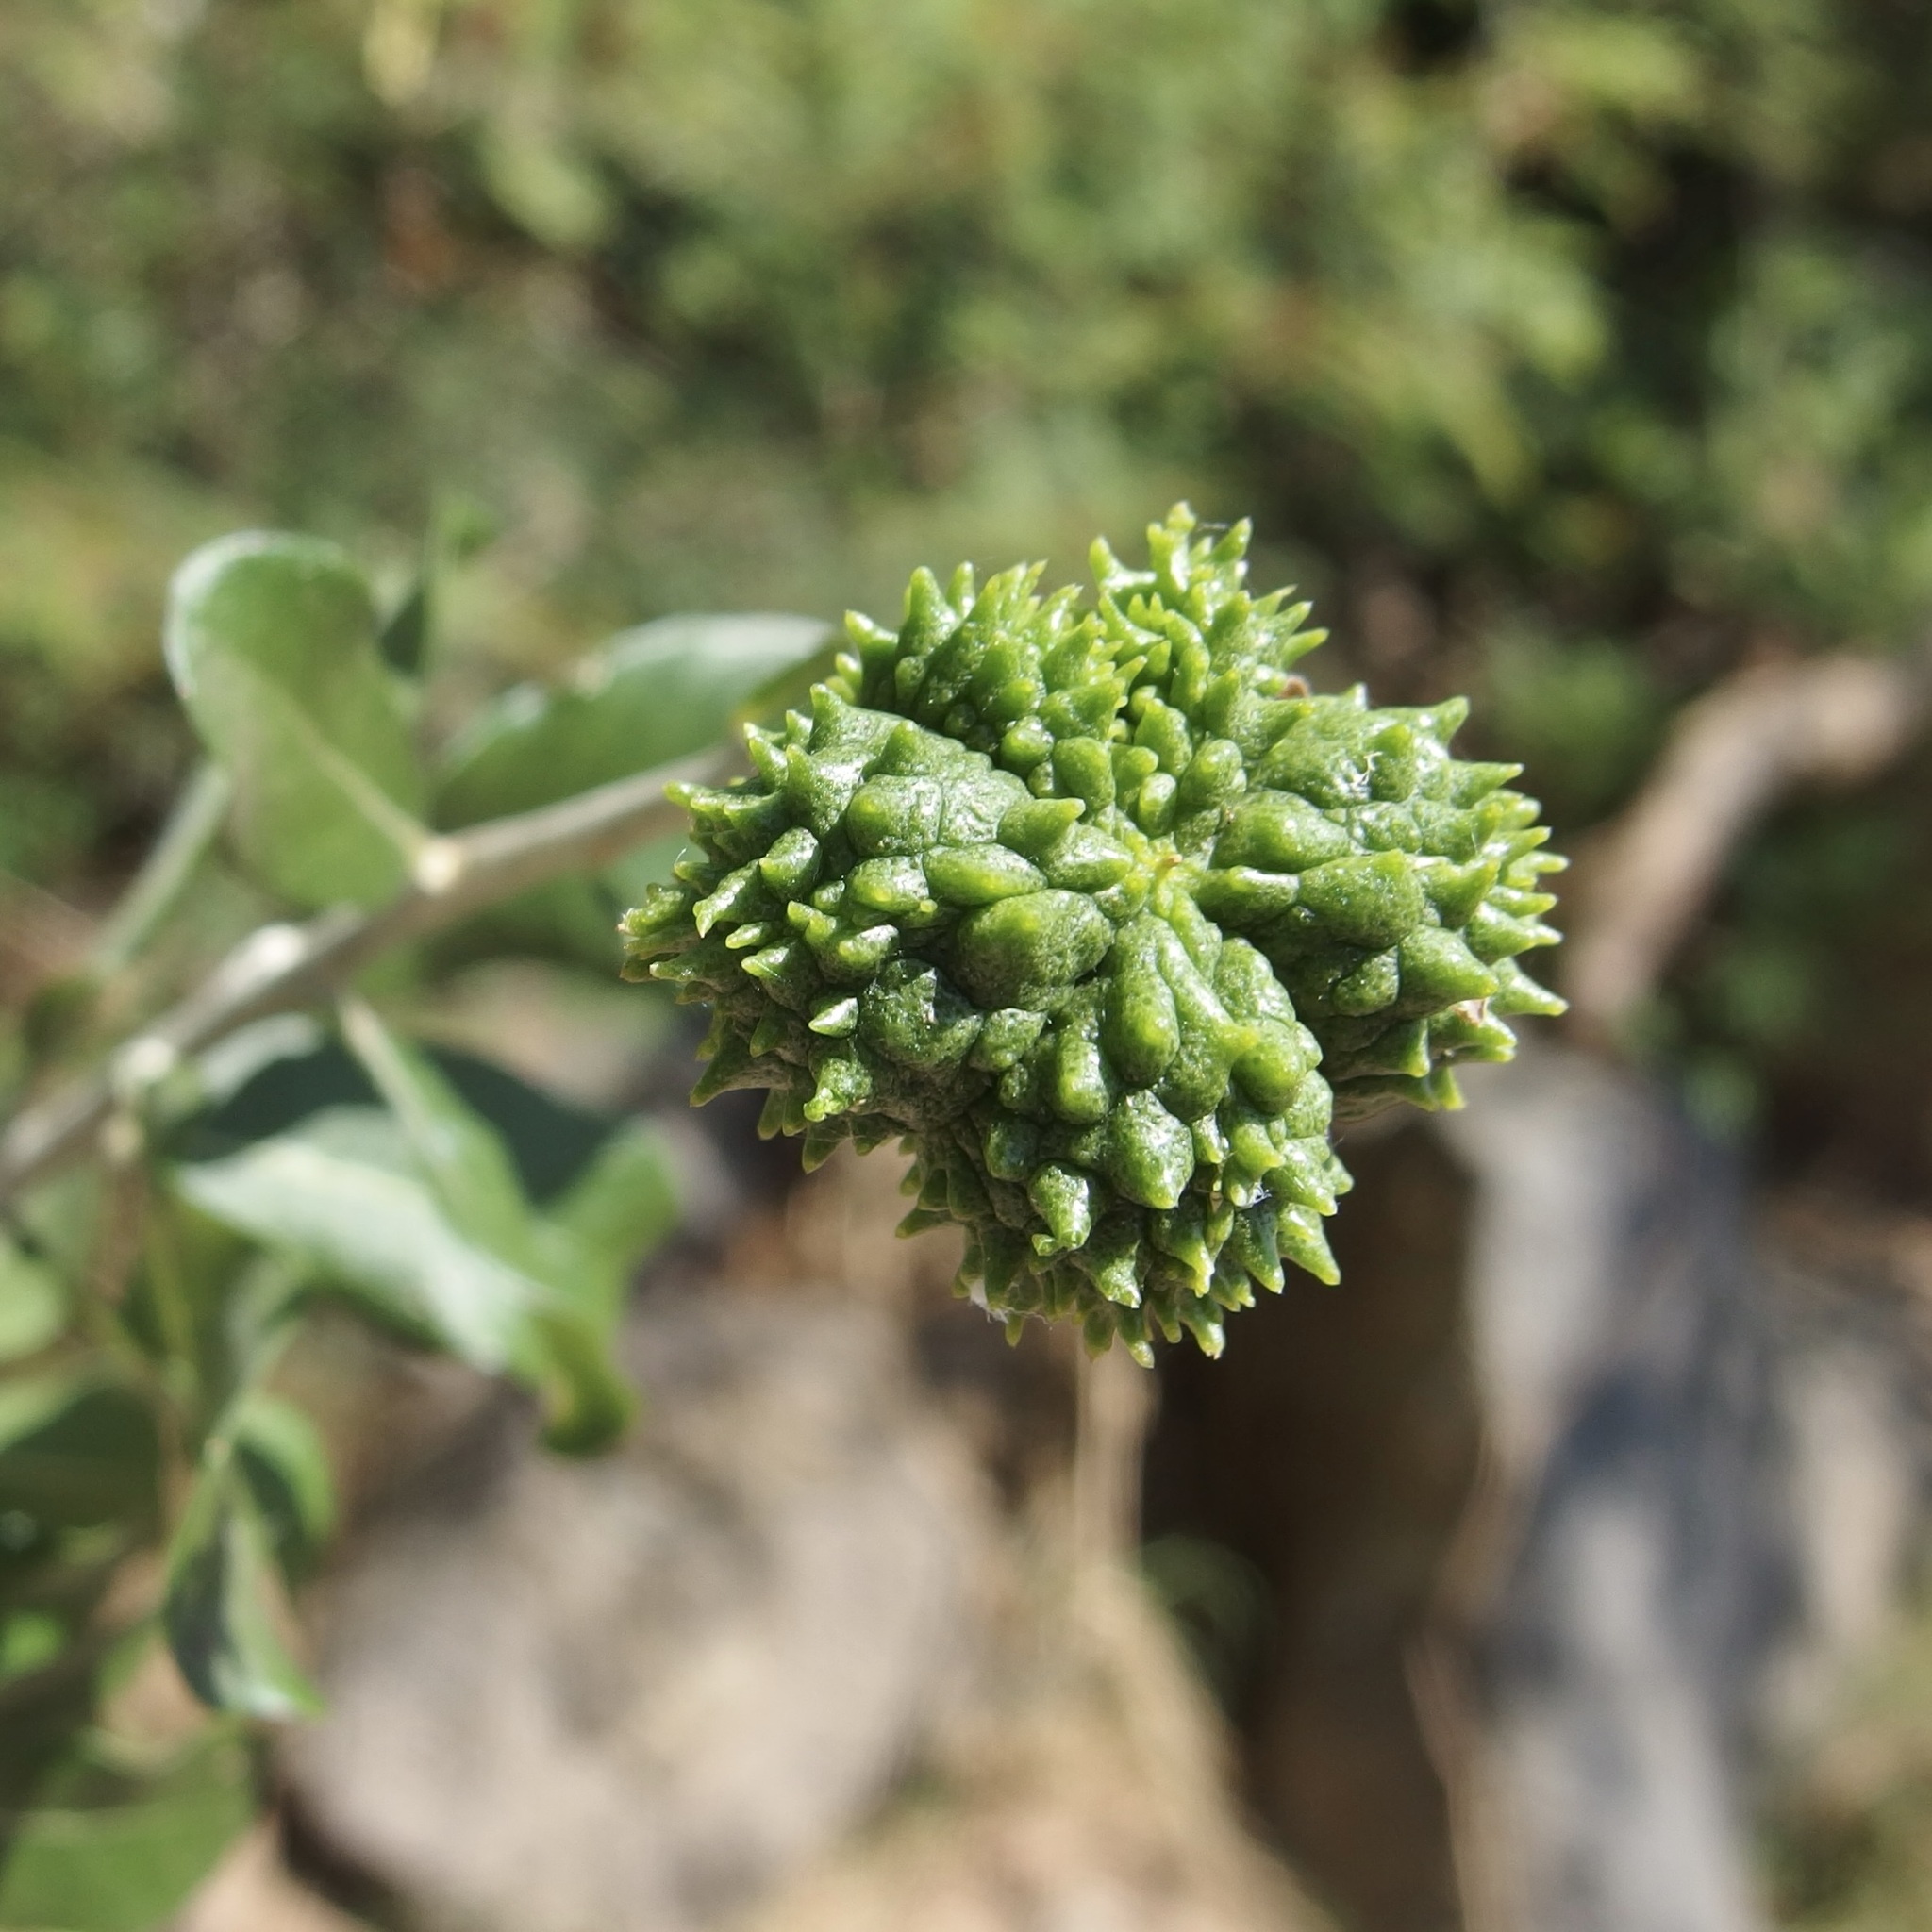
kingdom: Plantae
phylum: Tracheophyta
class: Magnoliopsida
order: Sapindales
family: Rutaceae
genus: Esenbeckia
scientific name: Esenbeckia hartmanii
